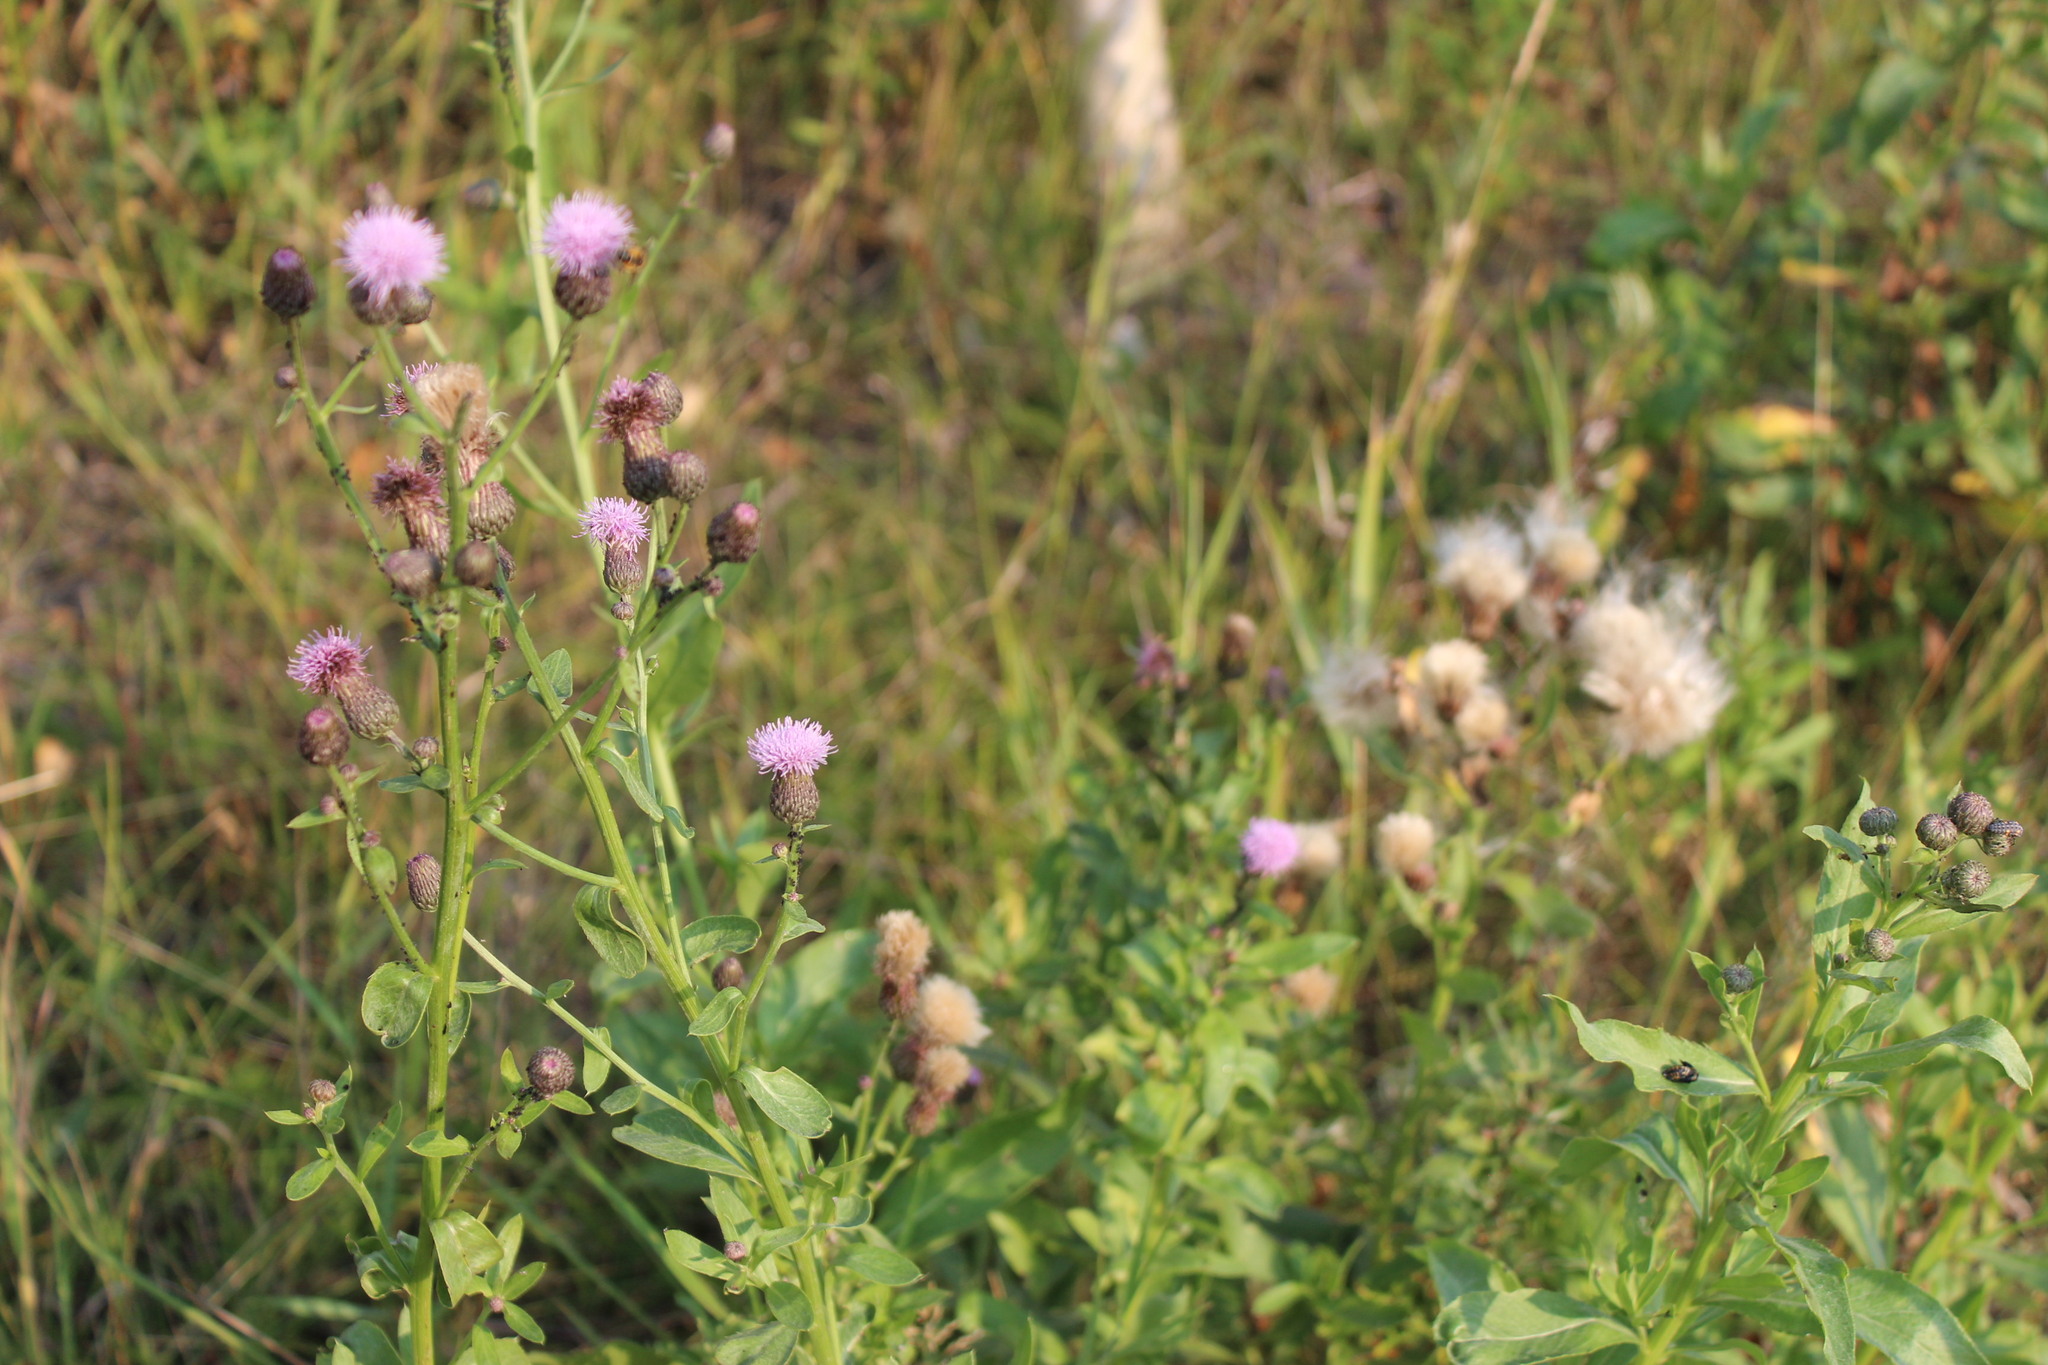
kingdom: Plantae
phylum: Tracheophyta
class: Magnoliopsida
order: Asterales
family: Asteraceae
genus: Cirsium
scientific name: Cirsium arvense
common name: Creeping thistle
